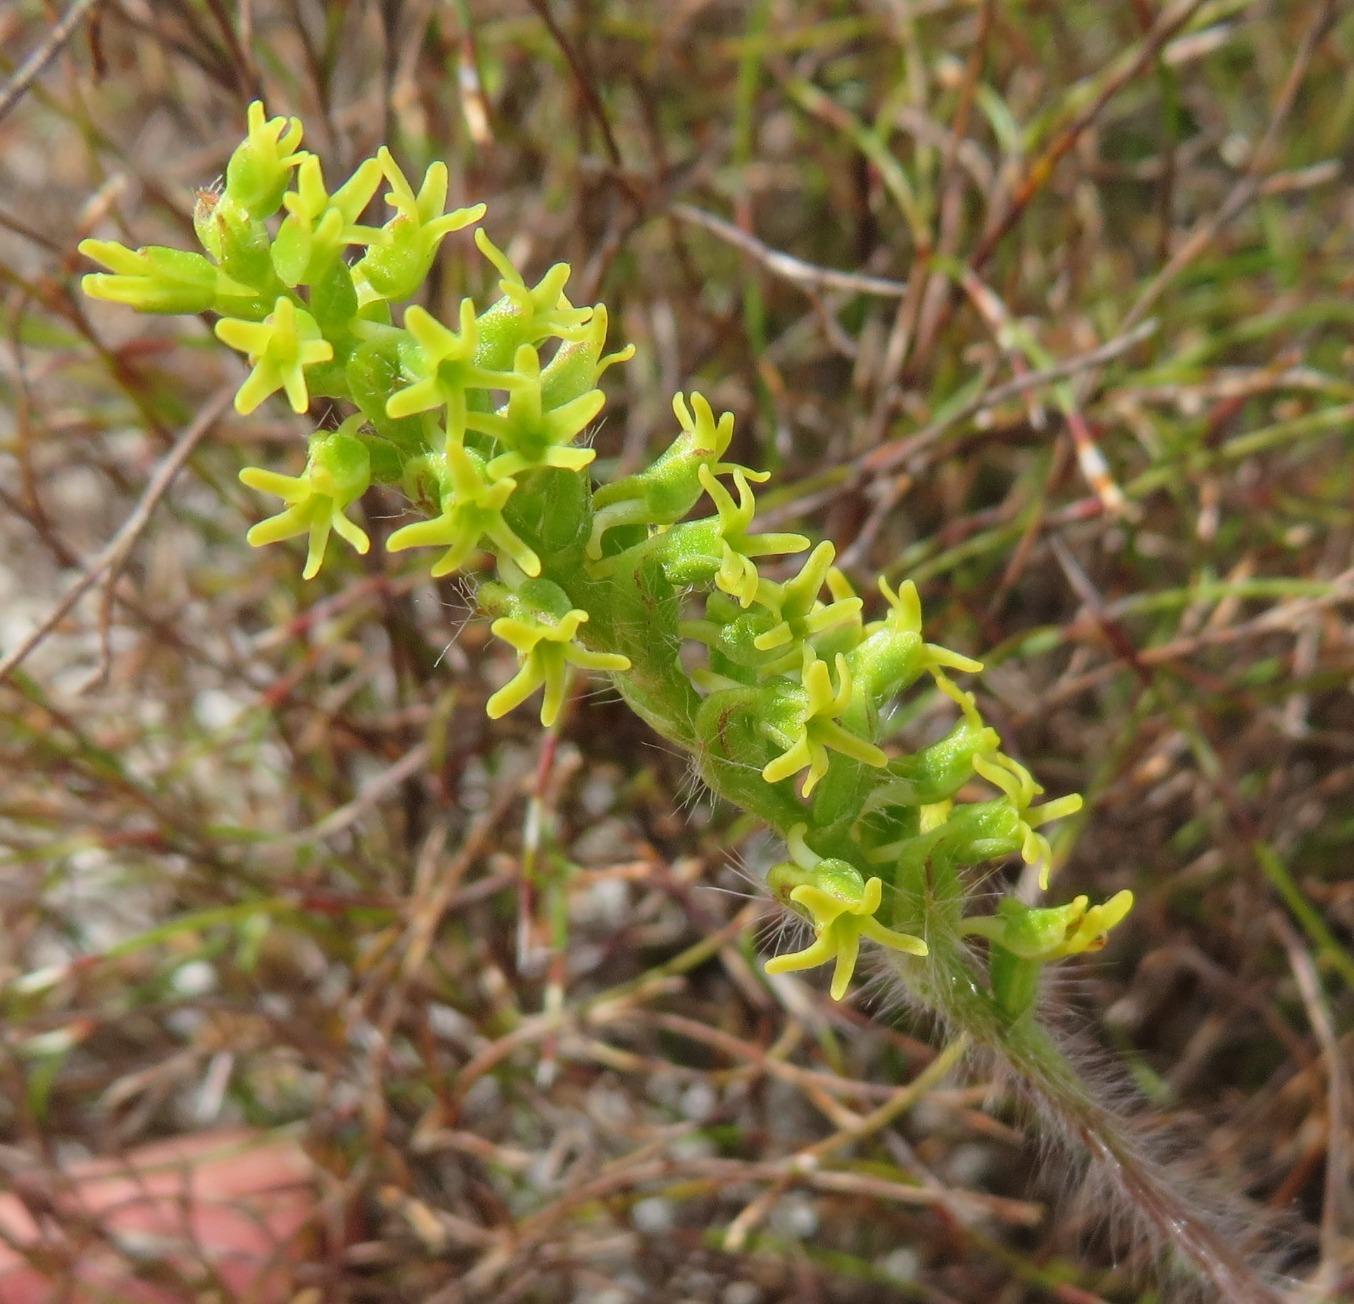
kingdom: Plantae
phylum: Tracheophyta
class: Liliopsida
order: Asparagales
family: Orchidaceae
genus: Holothrix
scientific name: Holothrix villosa
